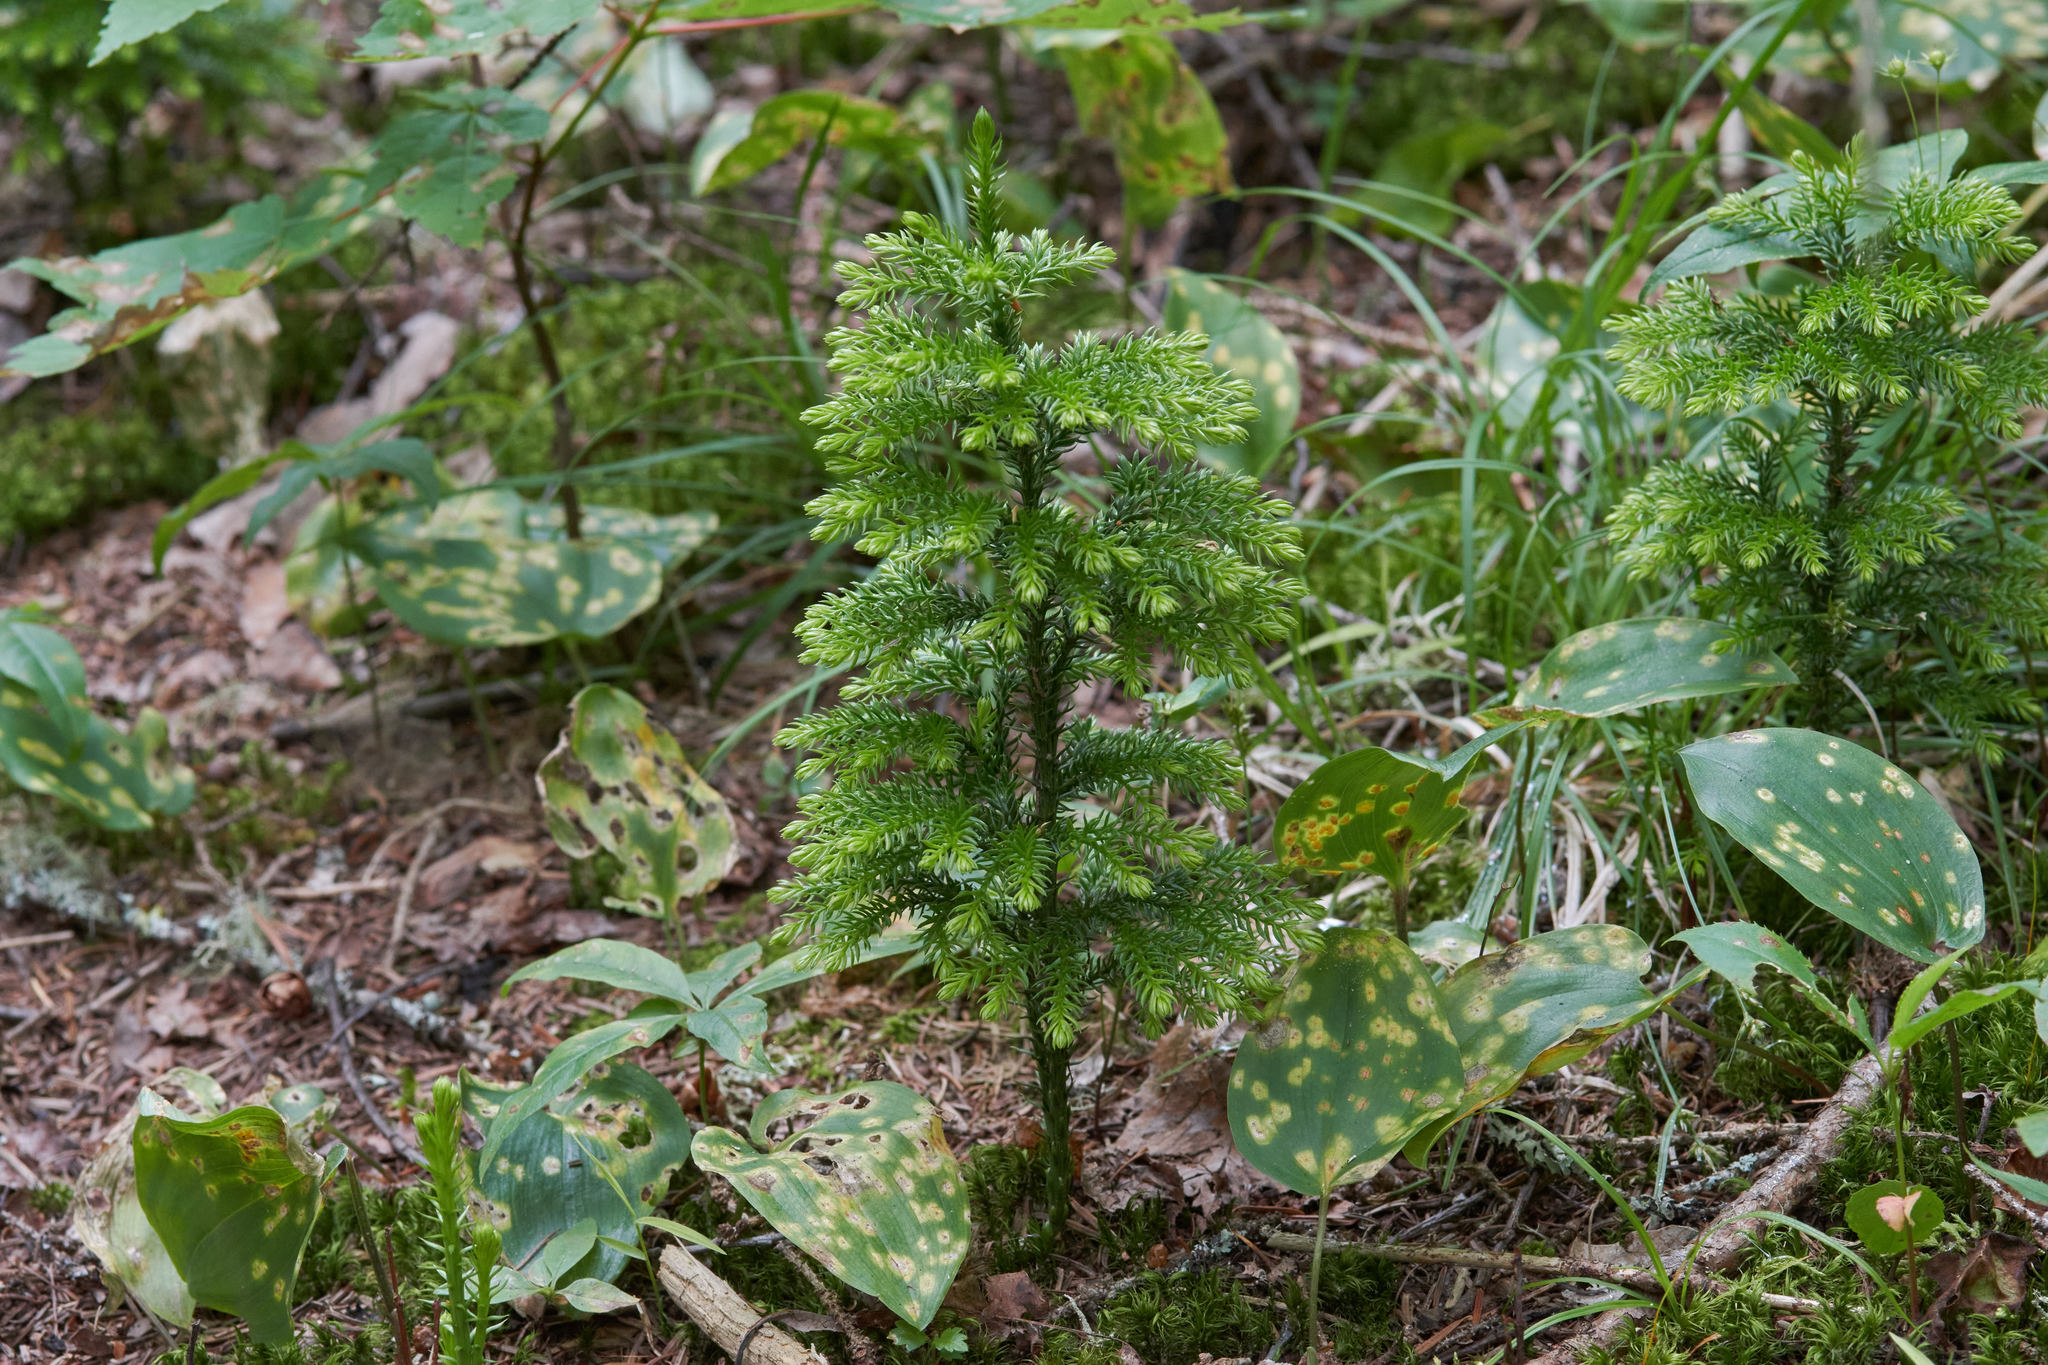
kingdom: Plantae
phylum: Tracheophyta
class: Lycopodiopsida
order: Lycopodiales
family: Lycopodiaceae
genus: Dendrolycopodium
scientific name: Dendrolycopodium dendroideum
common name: Northern tree-clubmoss
